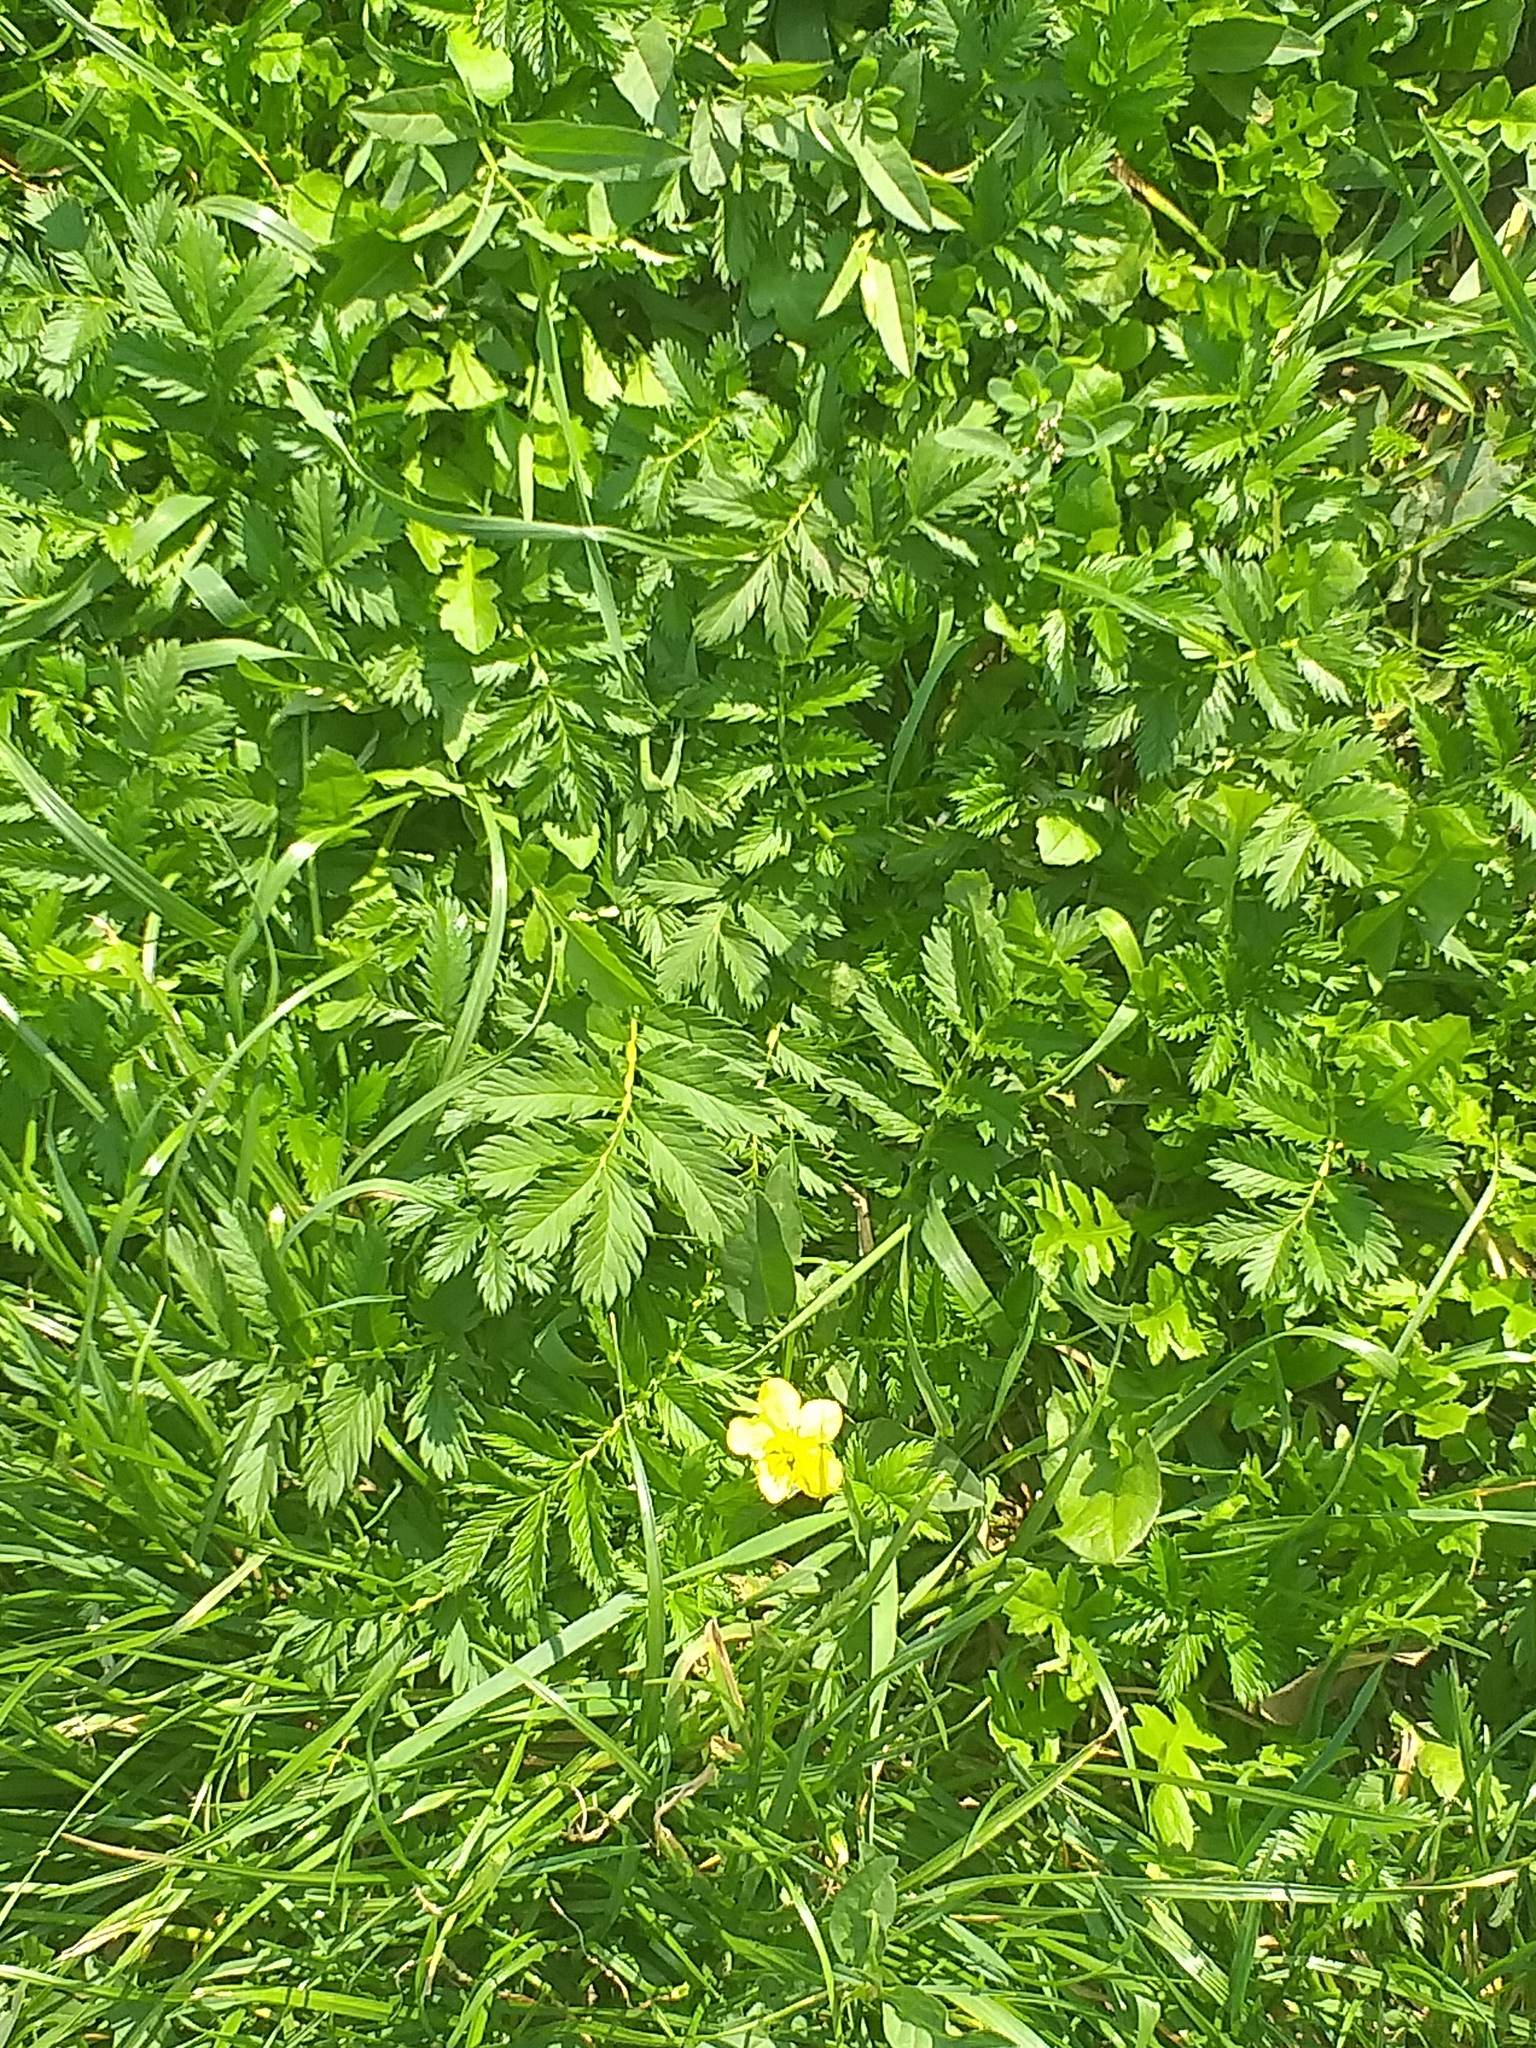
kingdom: Plantae
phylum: Tracheophyta
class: Magnoliopsida
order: Rosales
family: Rosaceae
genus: Argentina
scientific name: Argentina anserina
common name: Common silverweed
